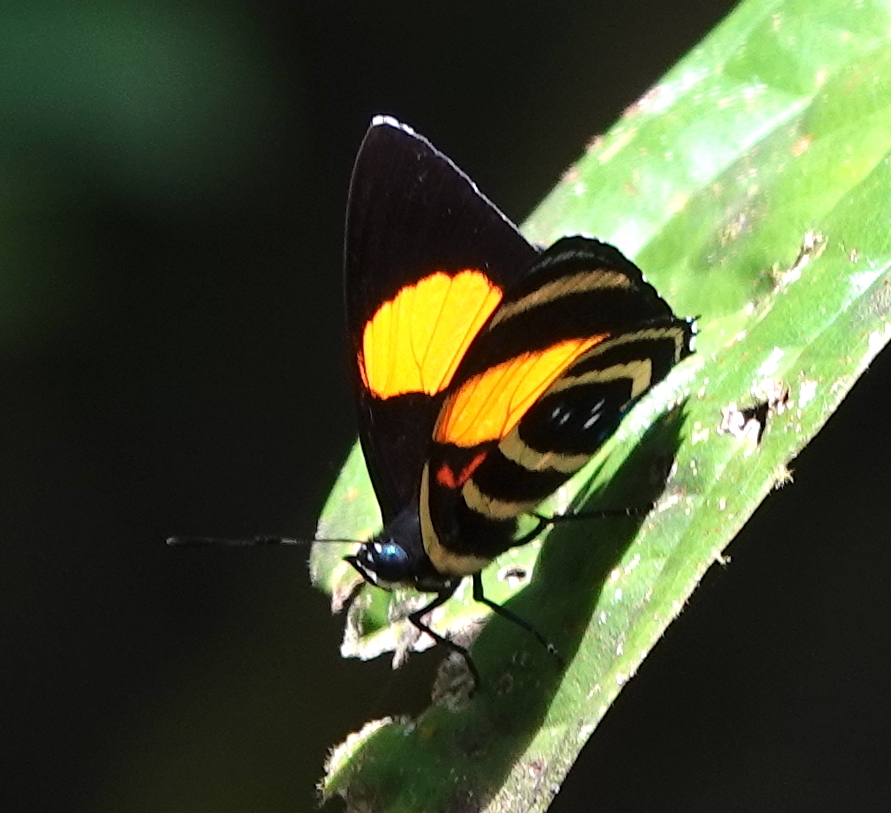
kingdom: Animalia
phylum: Arthropoda
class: Insecta
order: Lepidoptera
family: Nymphalidae
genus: Catagramma
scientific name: Catagramma Callicore lyca
